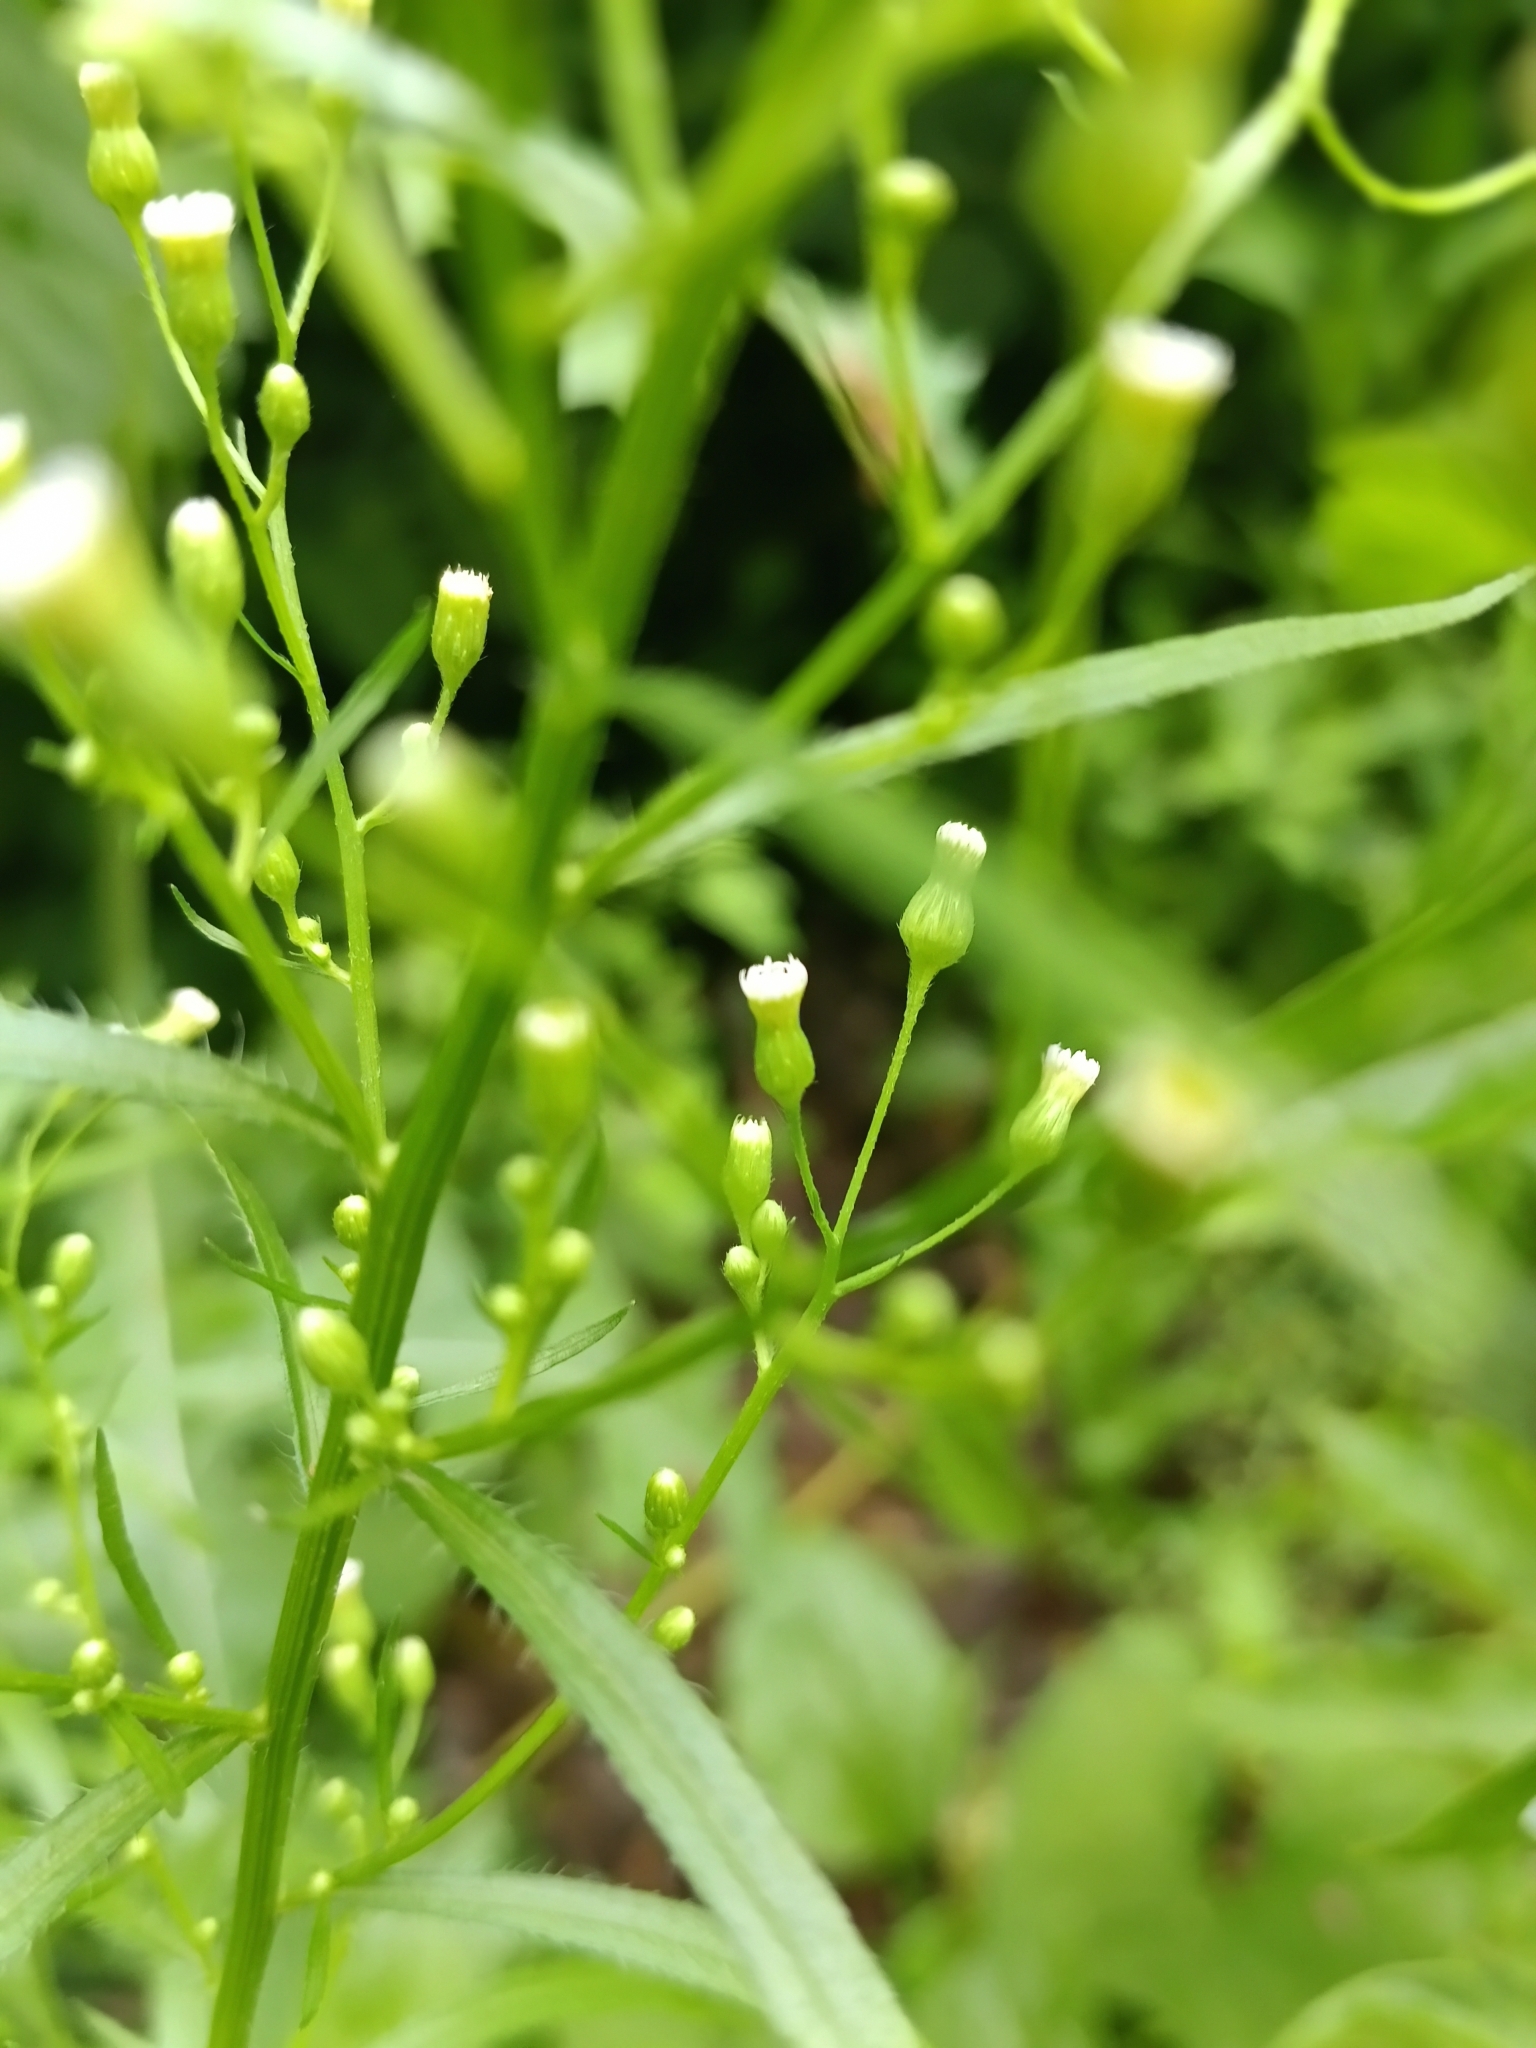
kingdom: Plantae
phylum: Tracheophyta
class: Magnoliopsida
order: Asterales
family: Asteraceae
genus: Erigeron
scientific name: Erigeron canadensis
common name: Canadian fleabane
